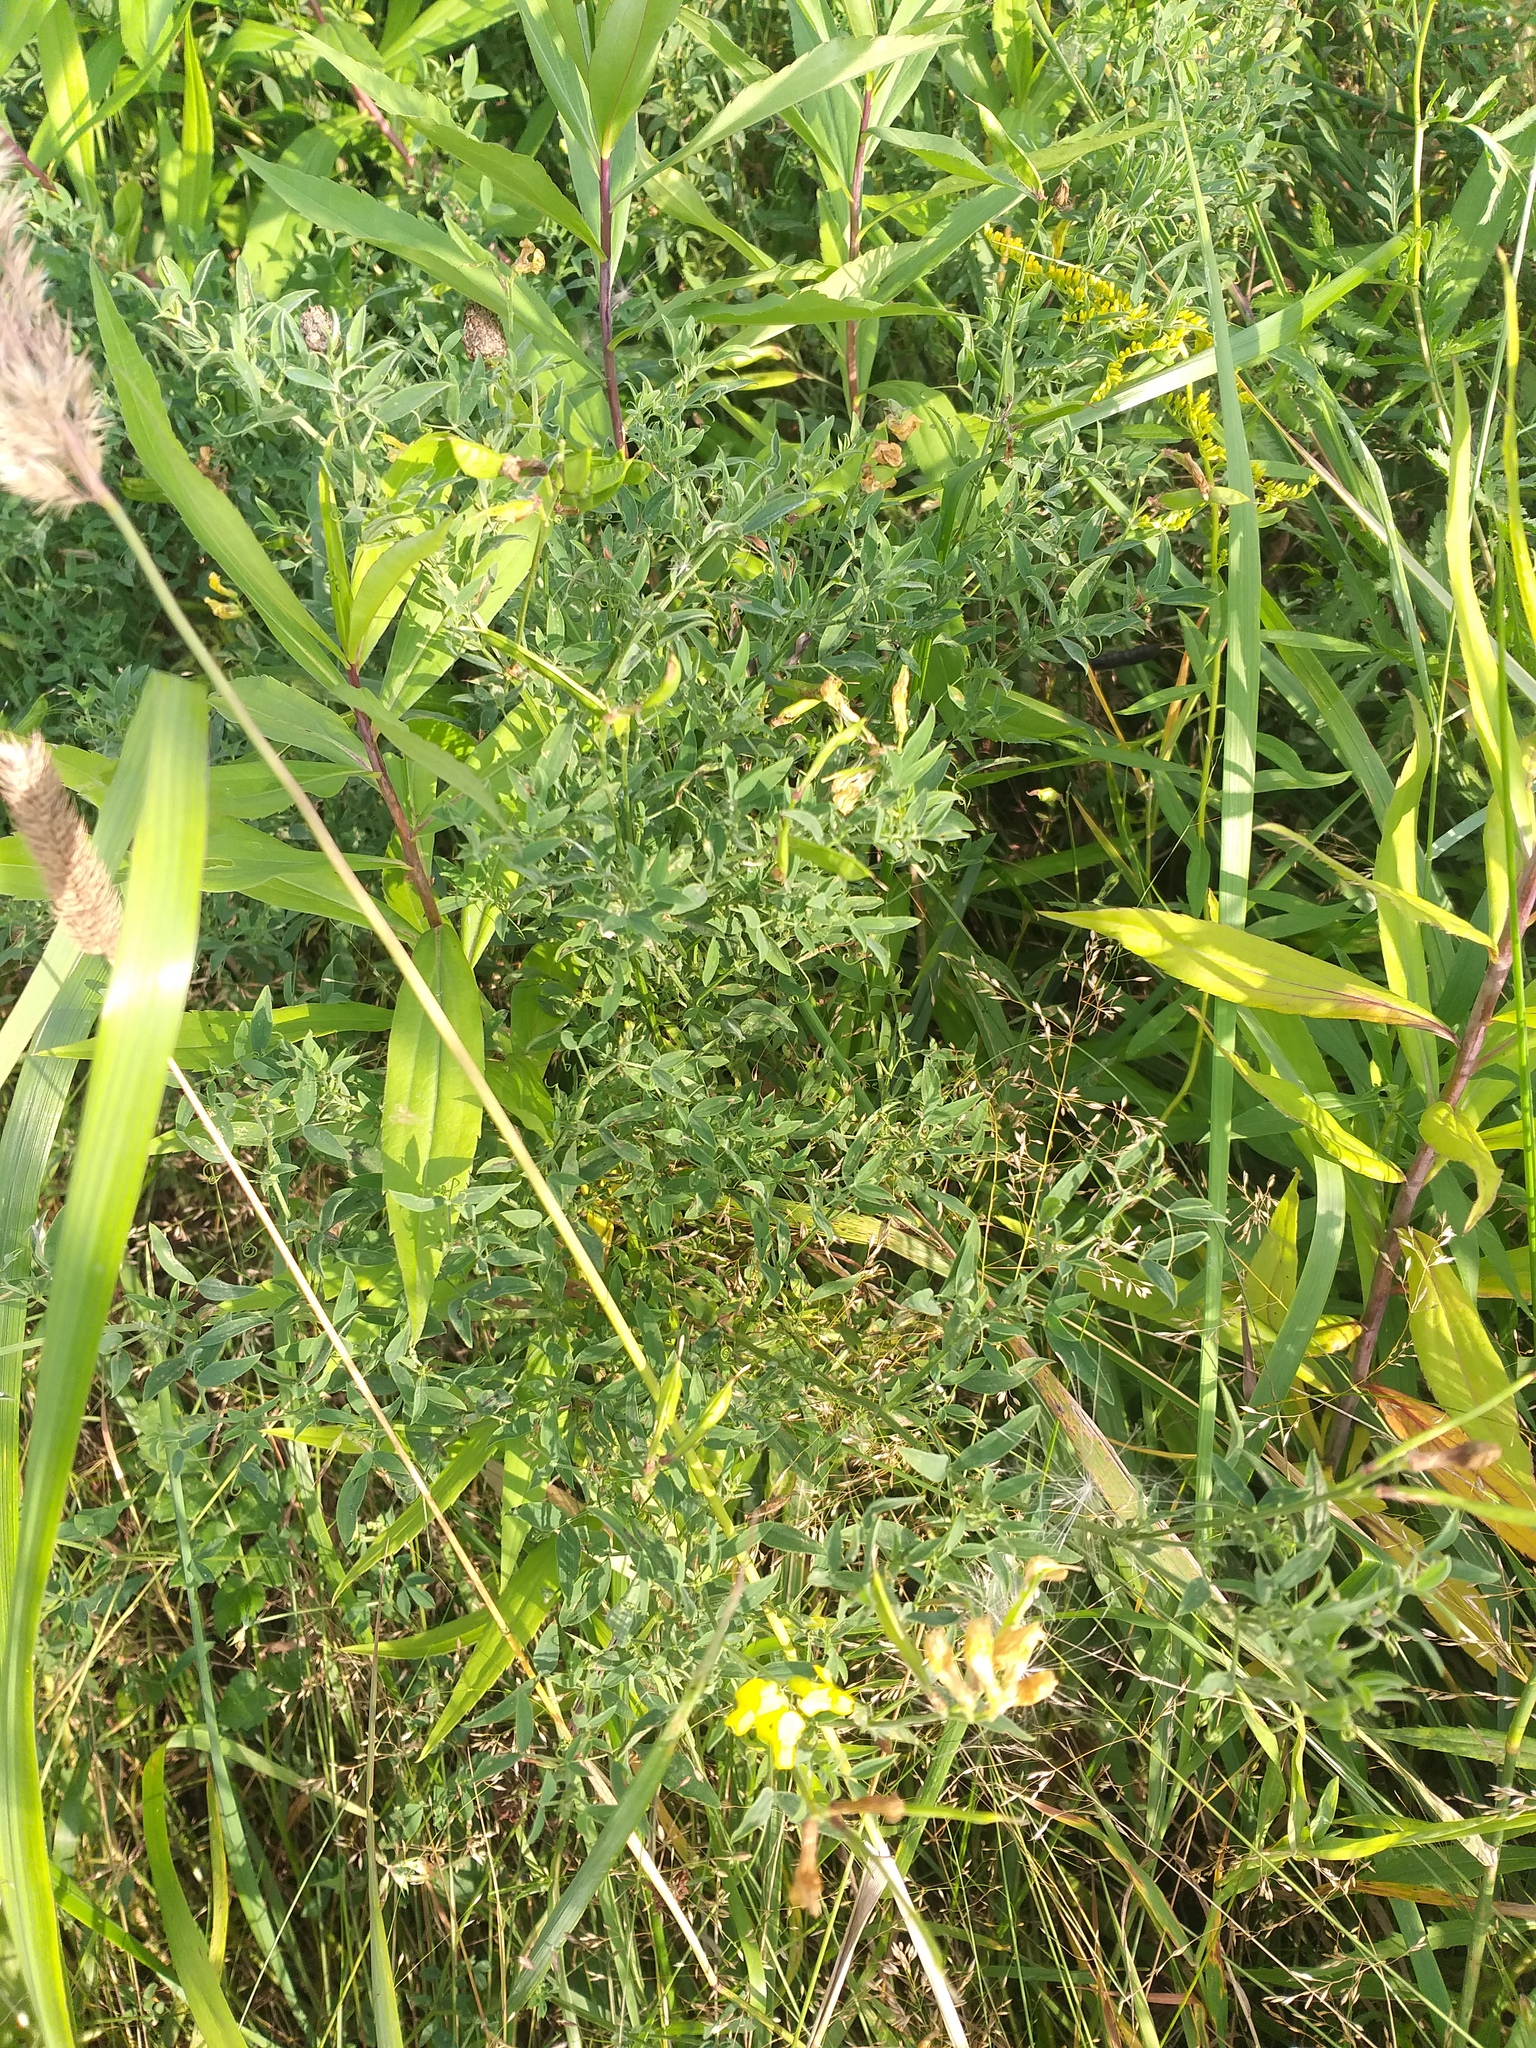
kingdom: Plantae
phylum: Tracheophyta
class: Magnoliopsida
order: Fabales
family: Fabaceae
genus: Lathyrus
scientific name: Lathyrus pratensis
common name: Meadow vetchling
